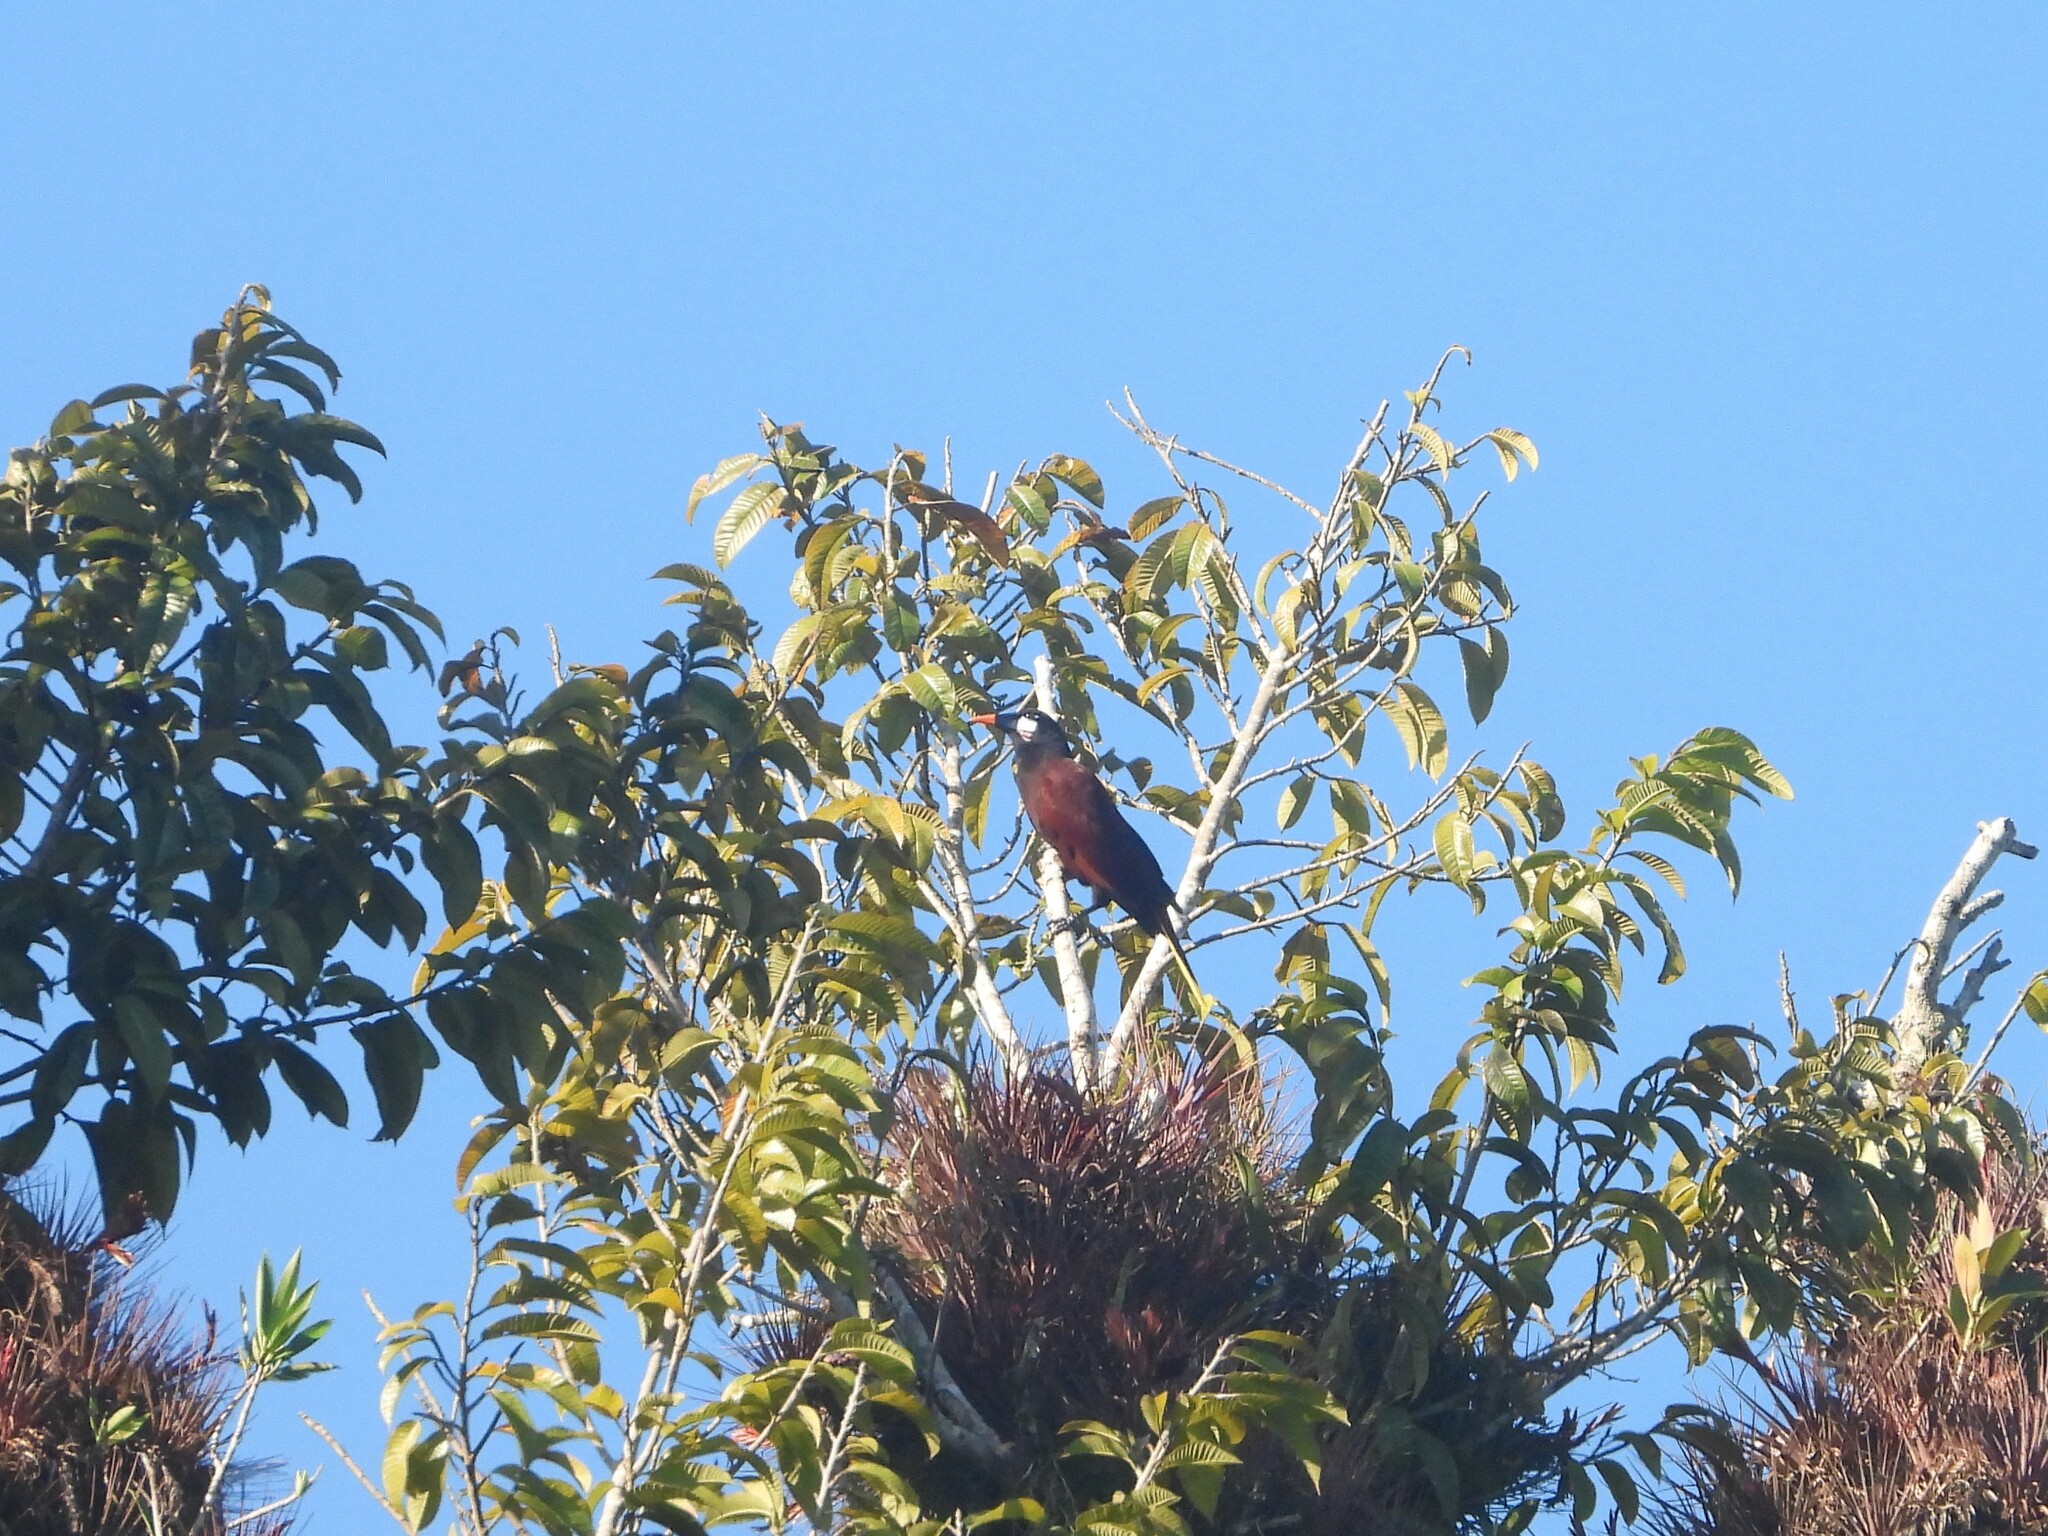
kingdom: Animalia
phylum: Chordata
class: Aves
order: Passeriformes
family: Icteridae
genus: Psarocolius
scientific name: Psarocolius montezuma
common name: Montezuma oropendola
